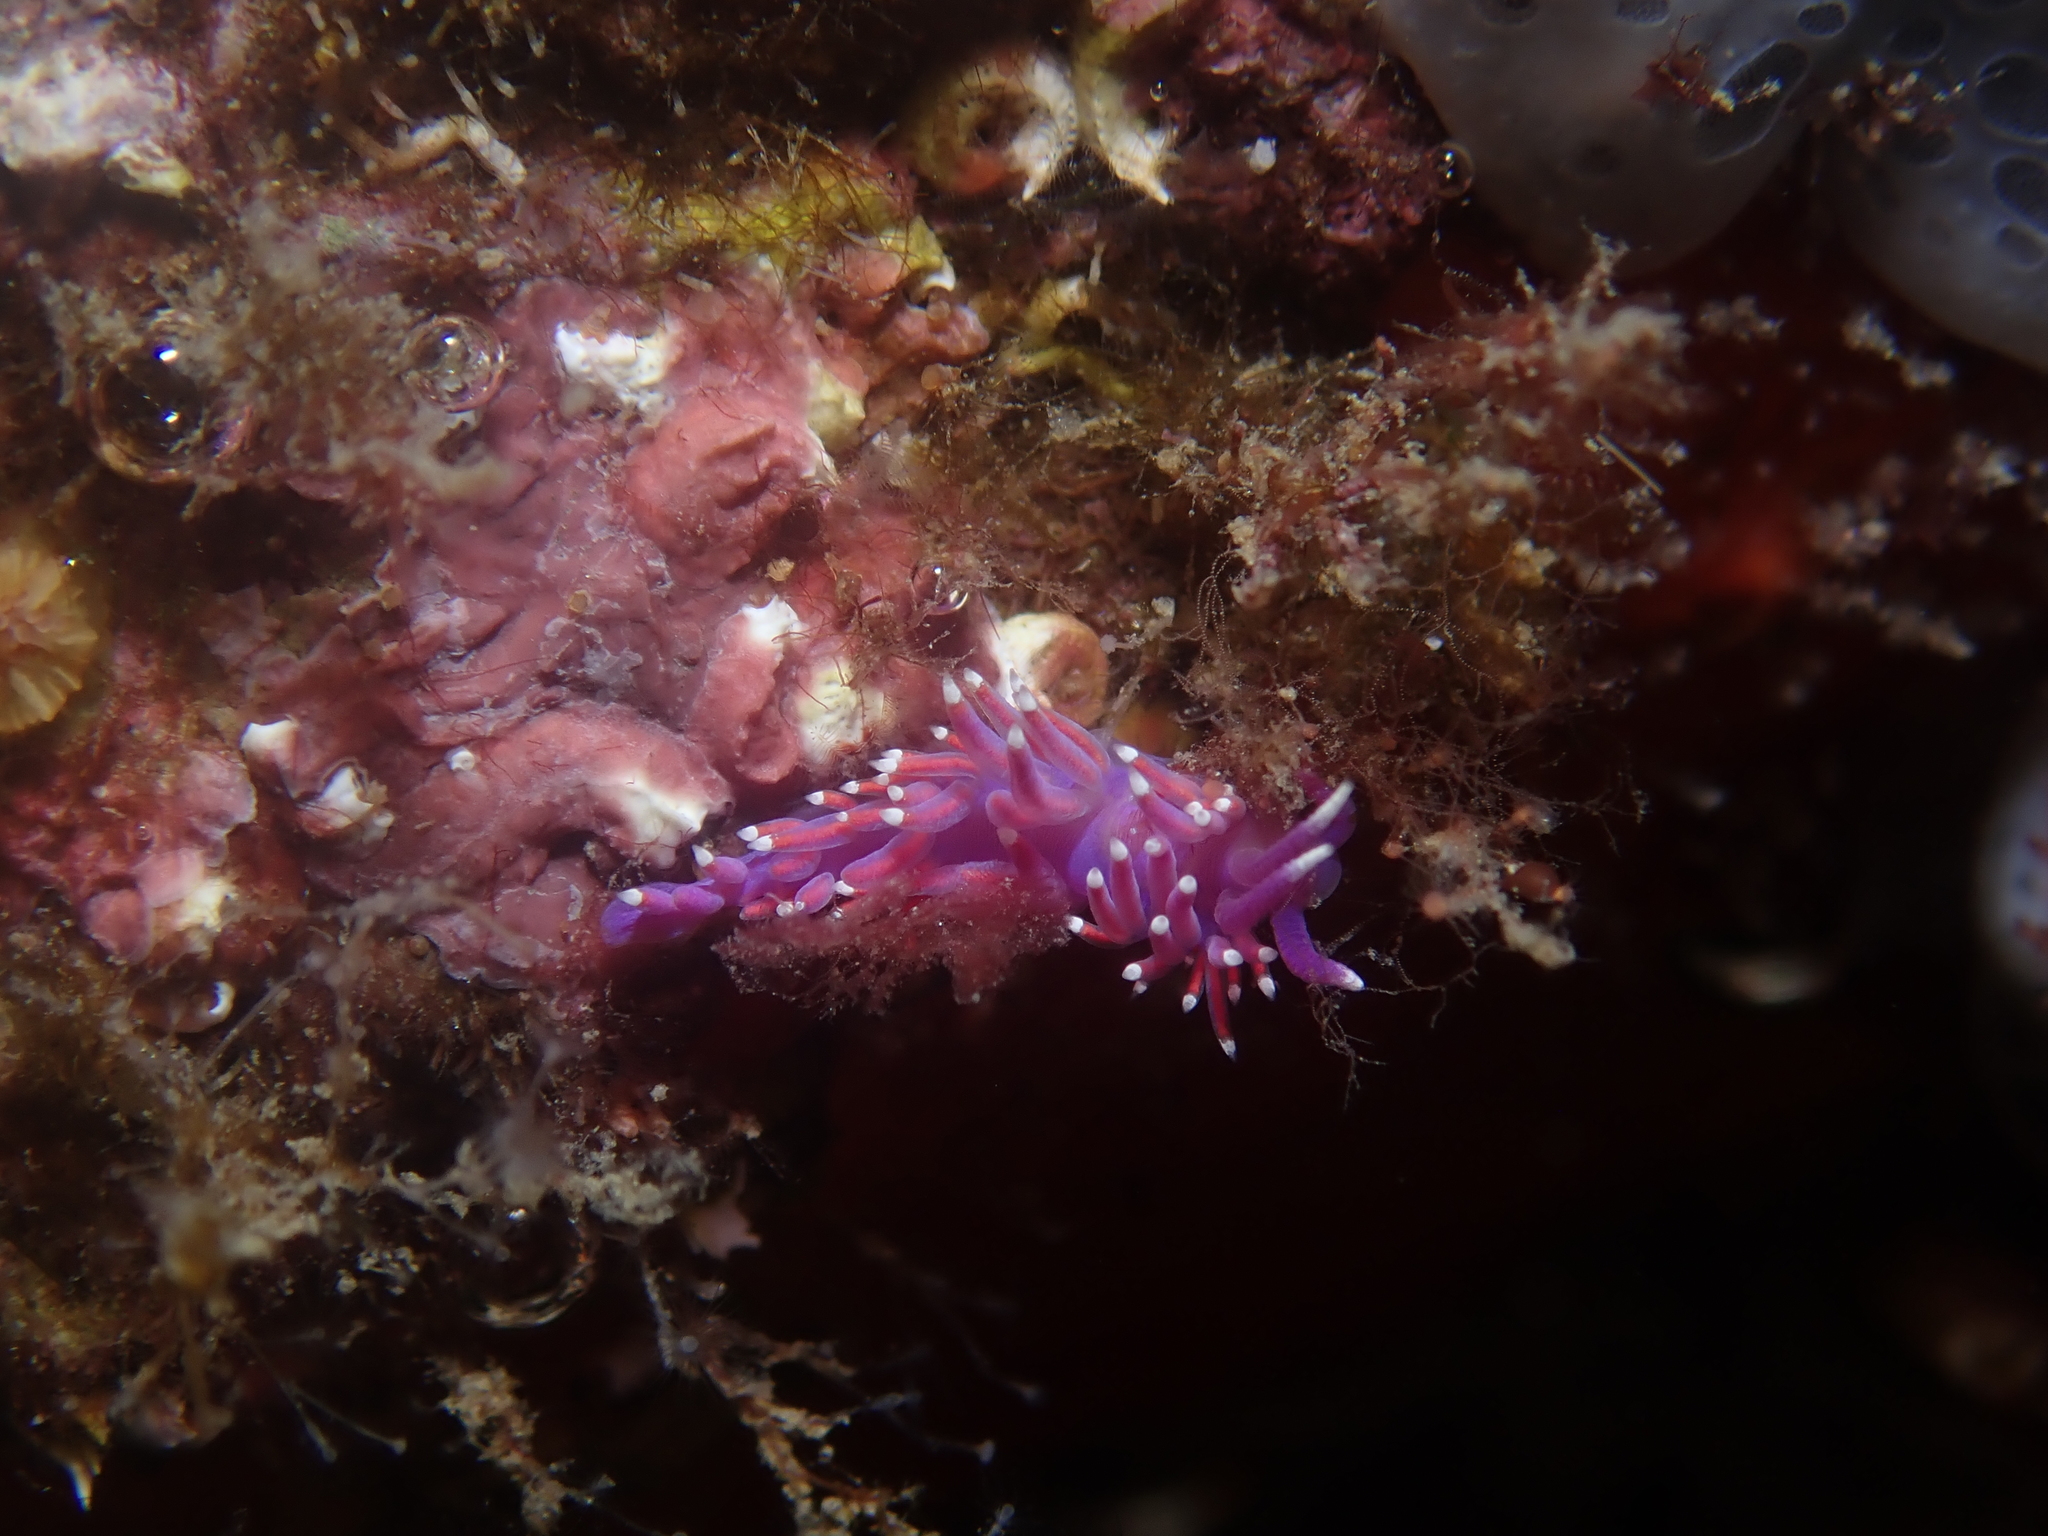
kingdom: Animalia
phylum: Mollusca
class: Gastropoda
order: Nudibranchia
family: Flabellinidae
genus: Edmundsella
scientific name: Edmundsella pedata
